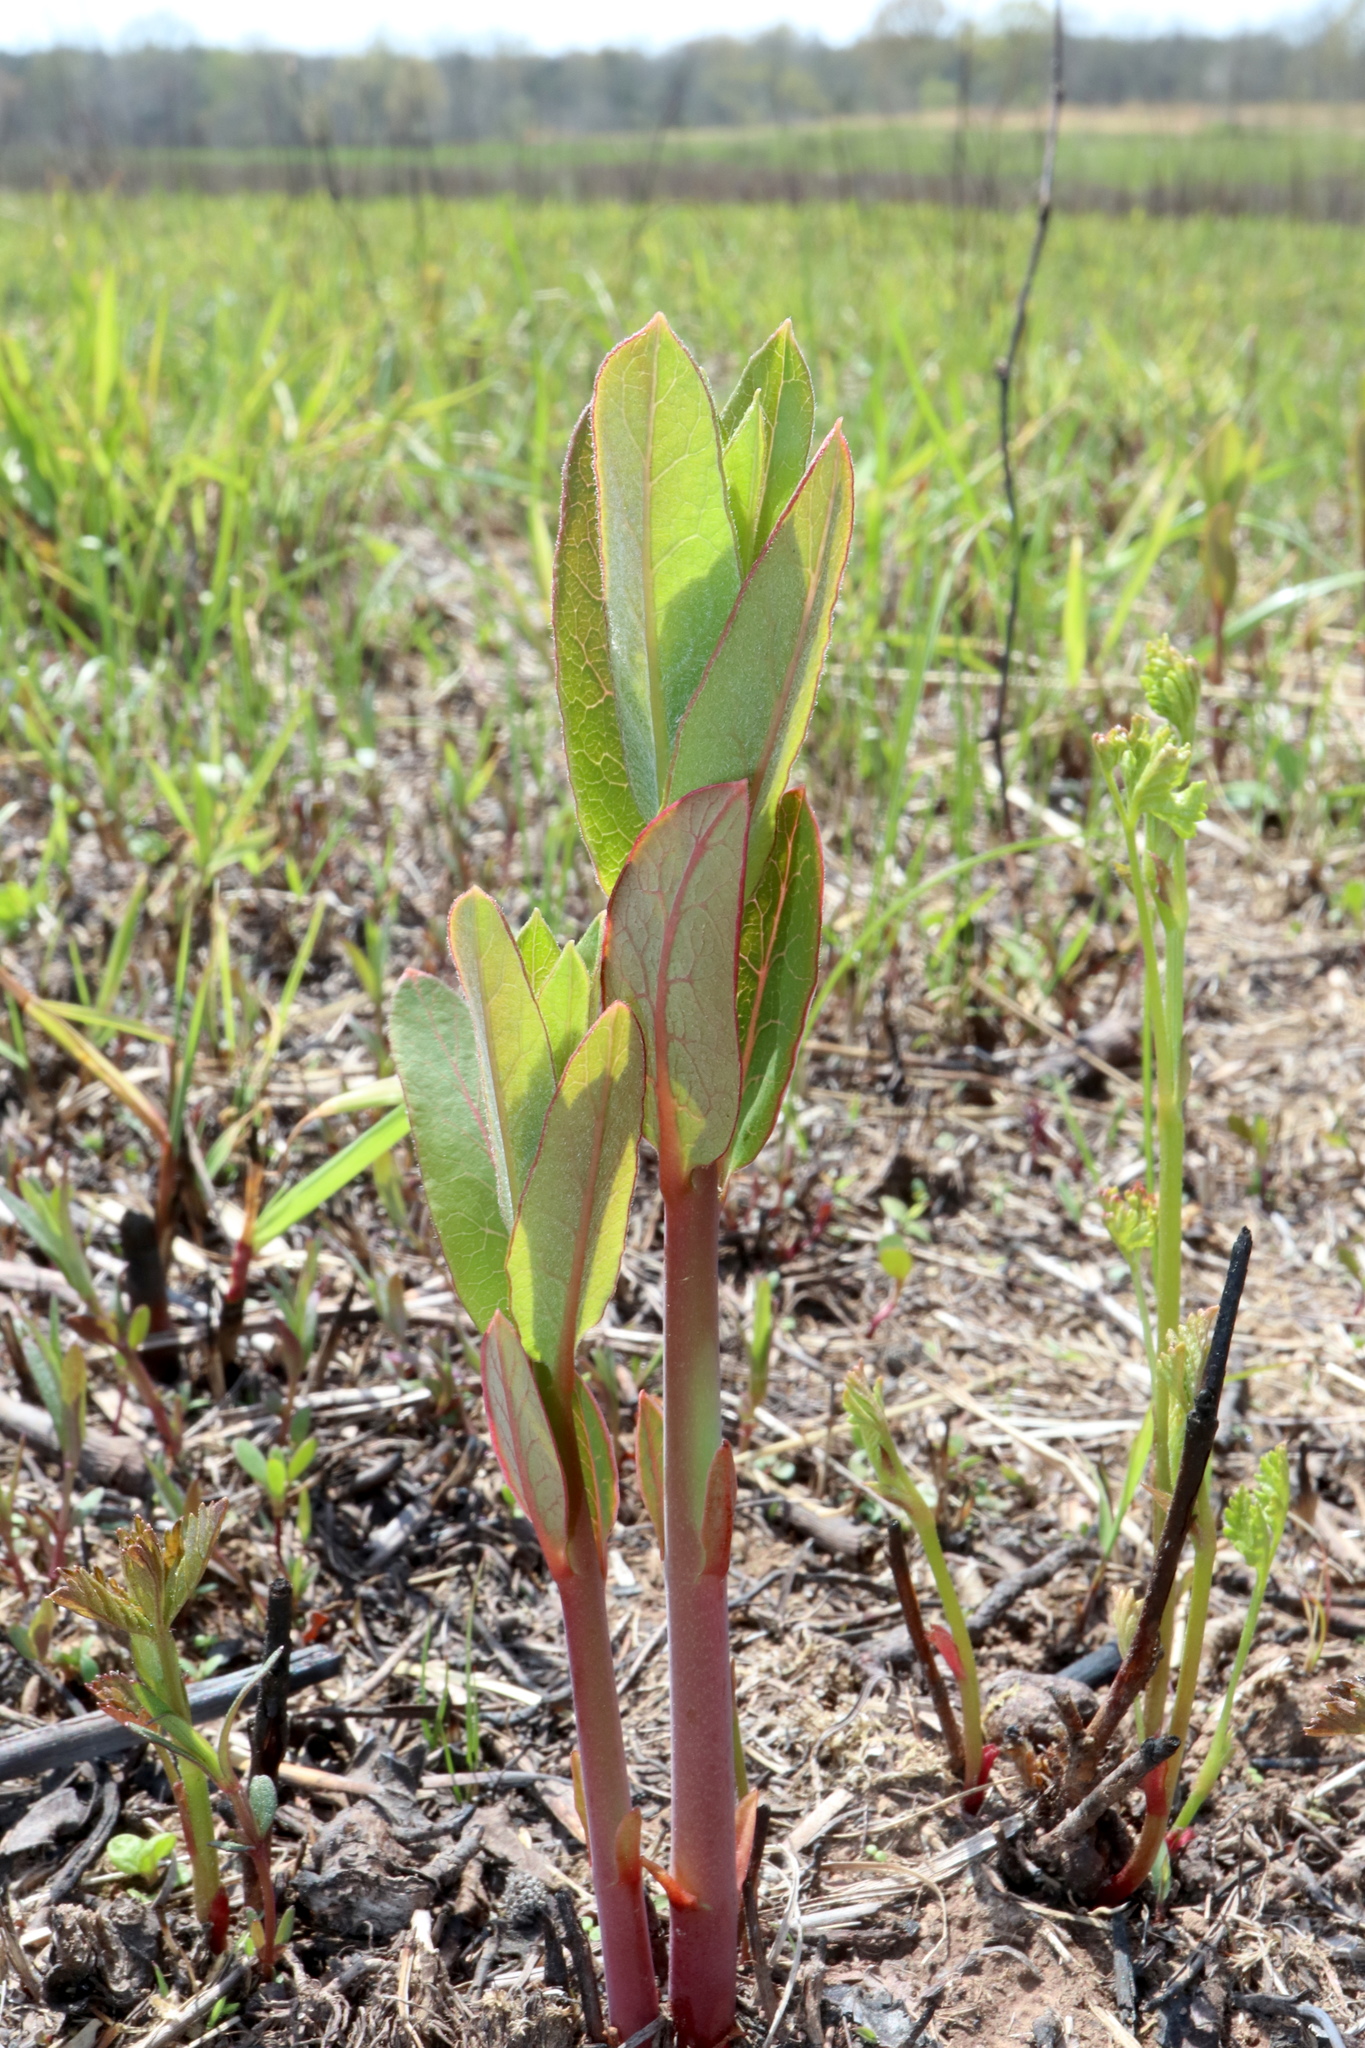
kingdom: Plantae
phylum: Tracheophyta
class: Magnoliopsida
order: Gentianales
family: Apocynaceae
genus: Apocynum
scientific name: Apocynum cannabinum
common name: Hemp dogbane
